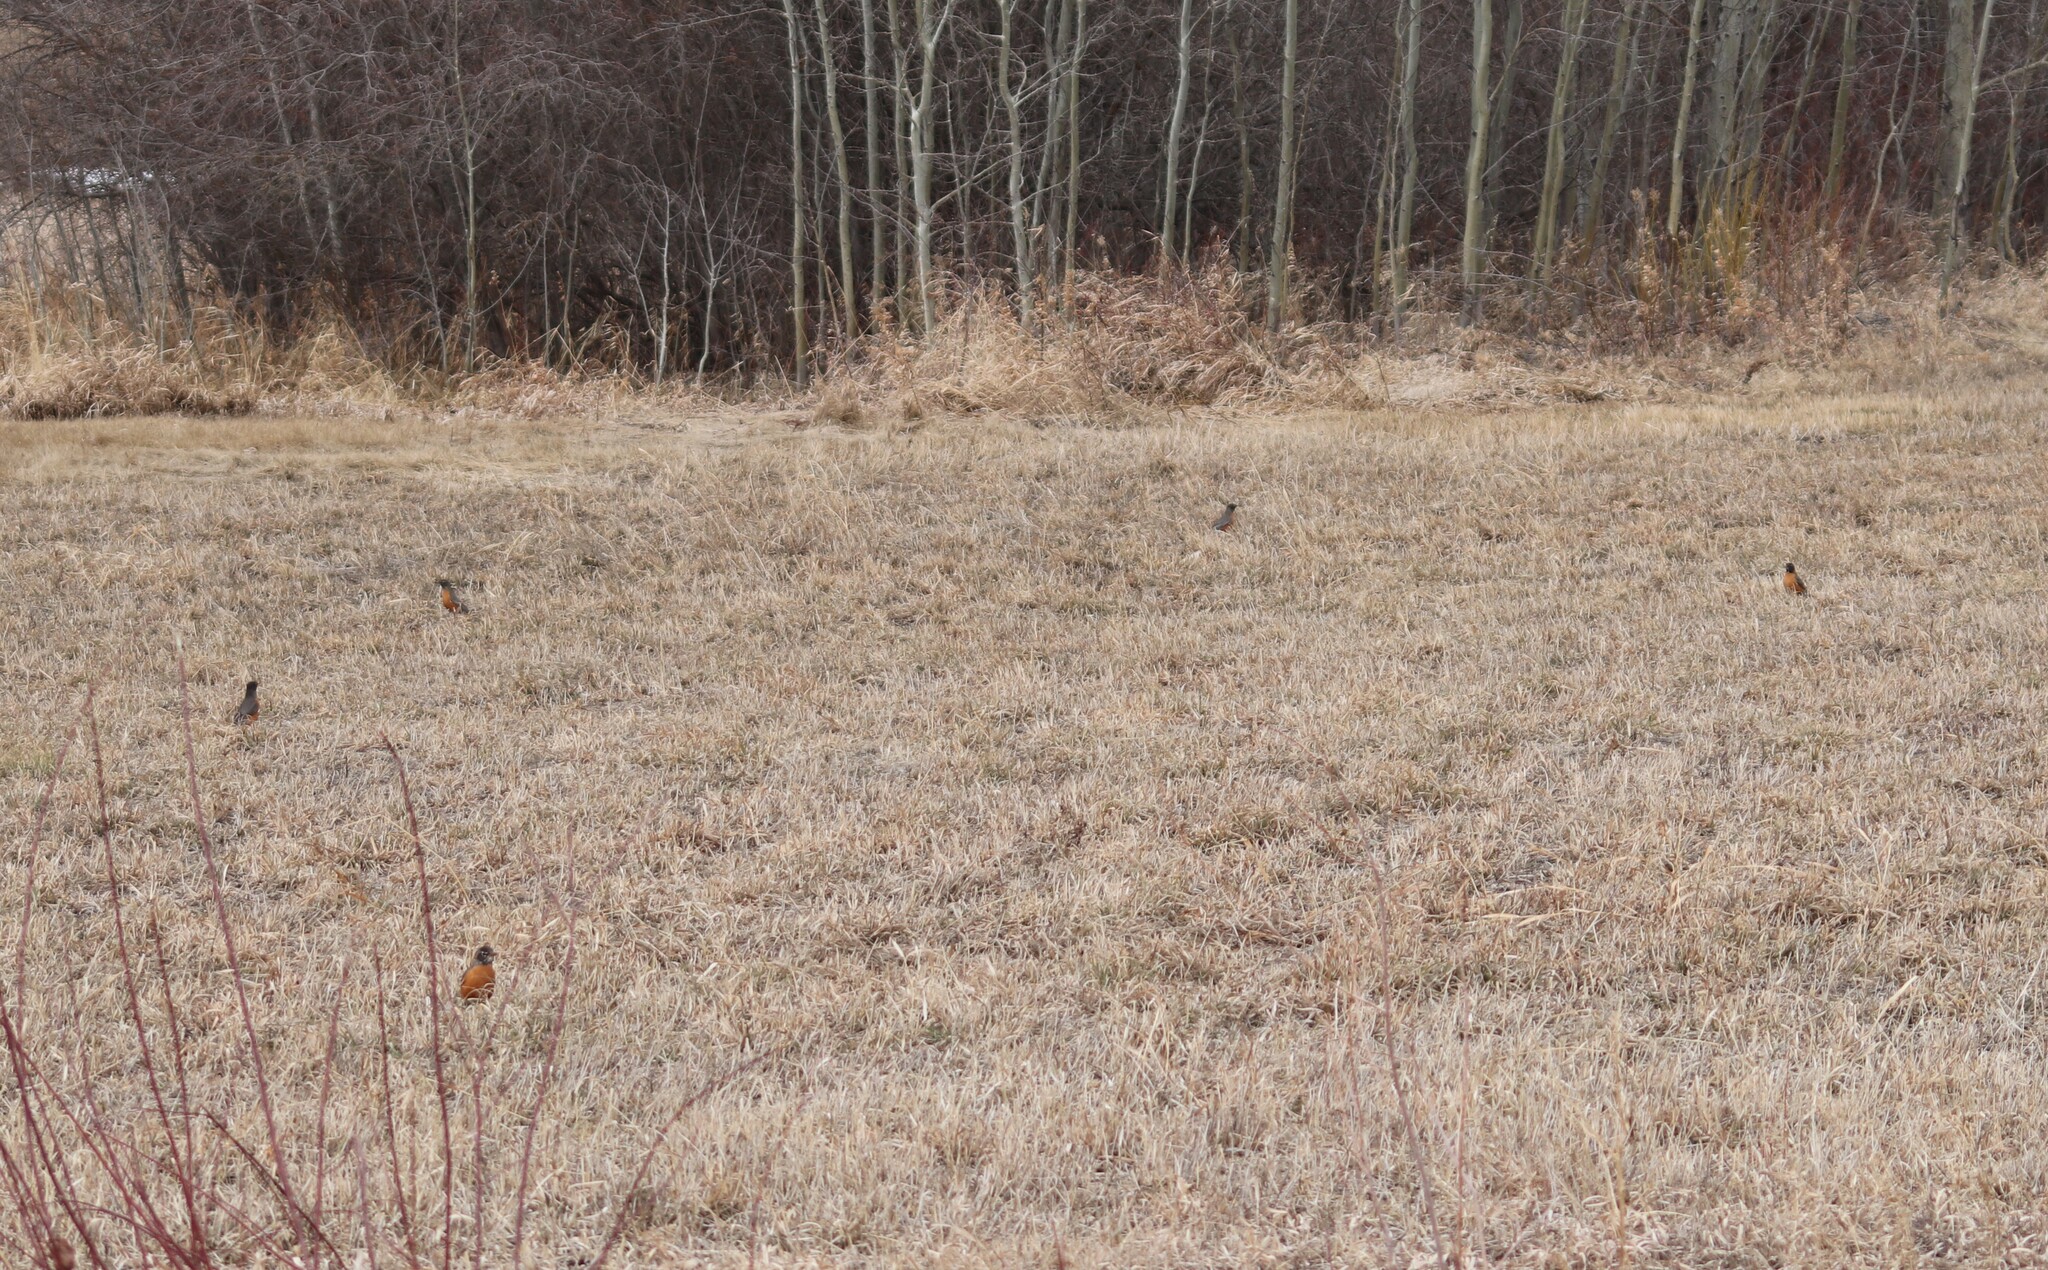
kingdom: Animalia
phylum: Chordata
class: Aves
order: Passeriformes
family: Turdidae
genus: Turdus
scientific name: Turdus migratorius
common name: American robin
